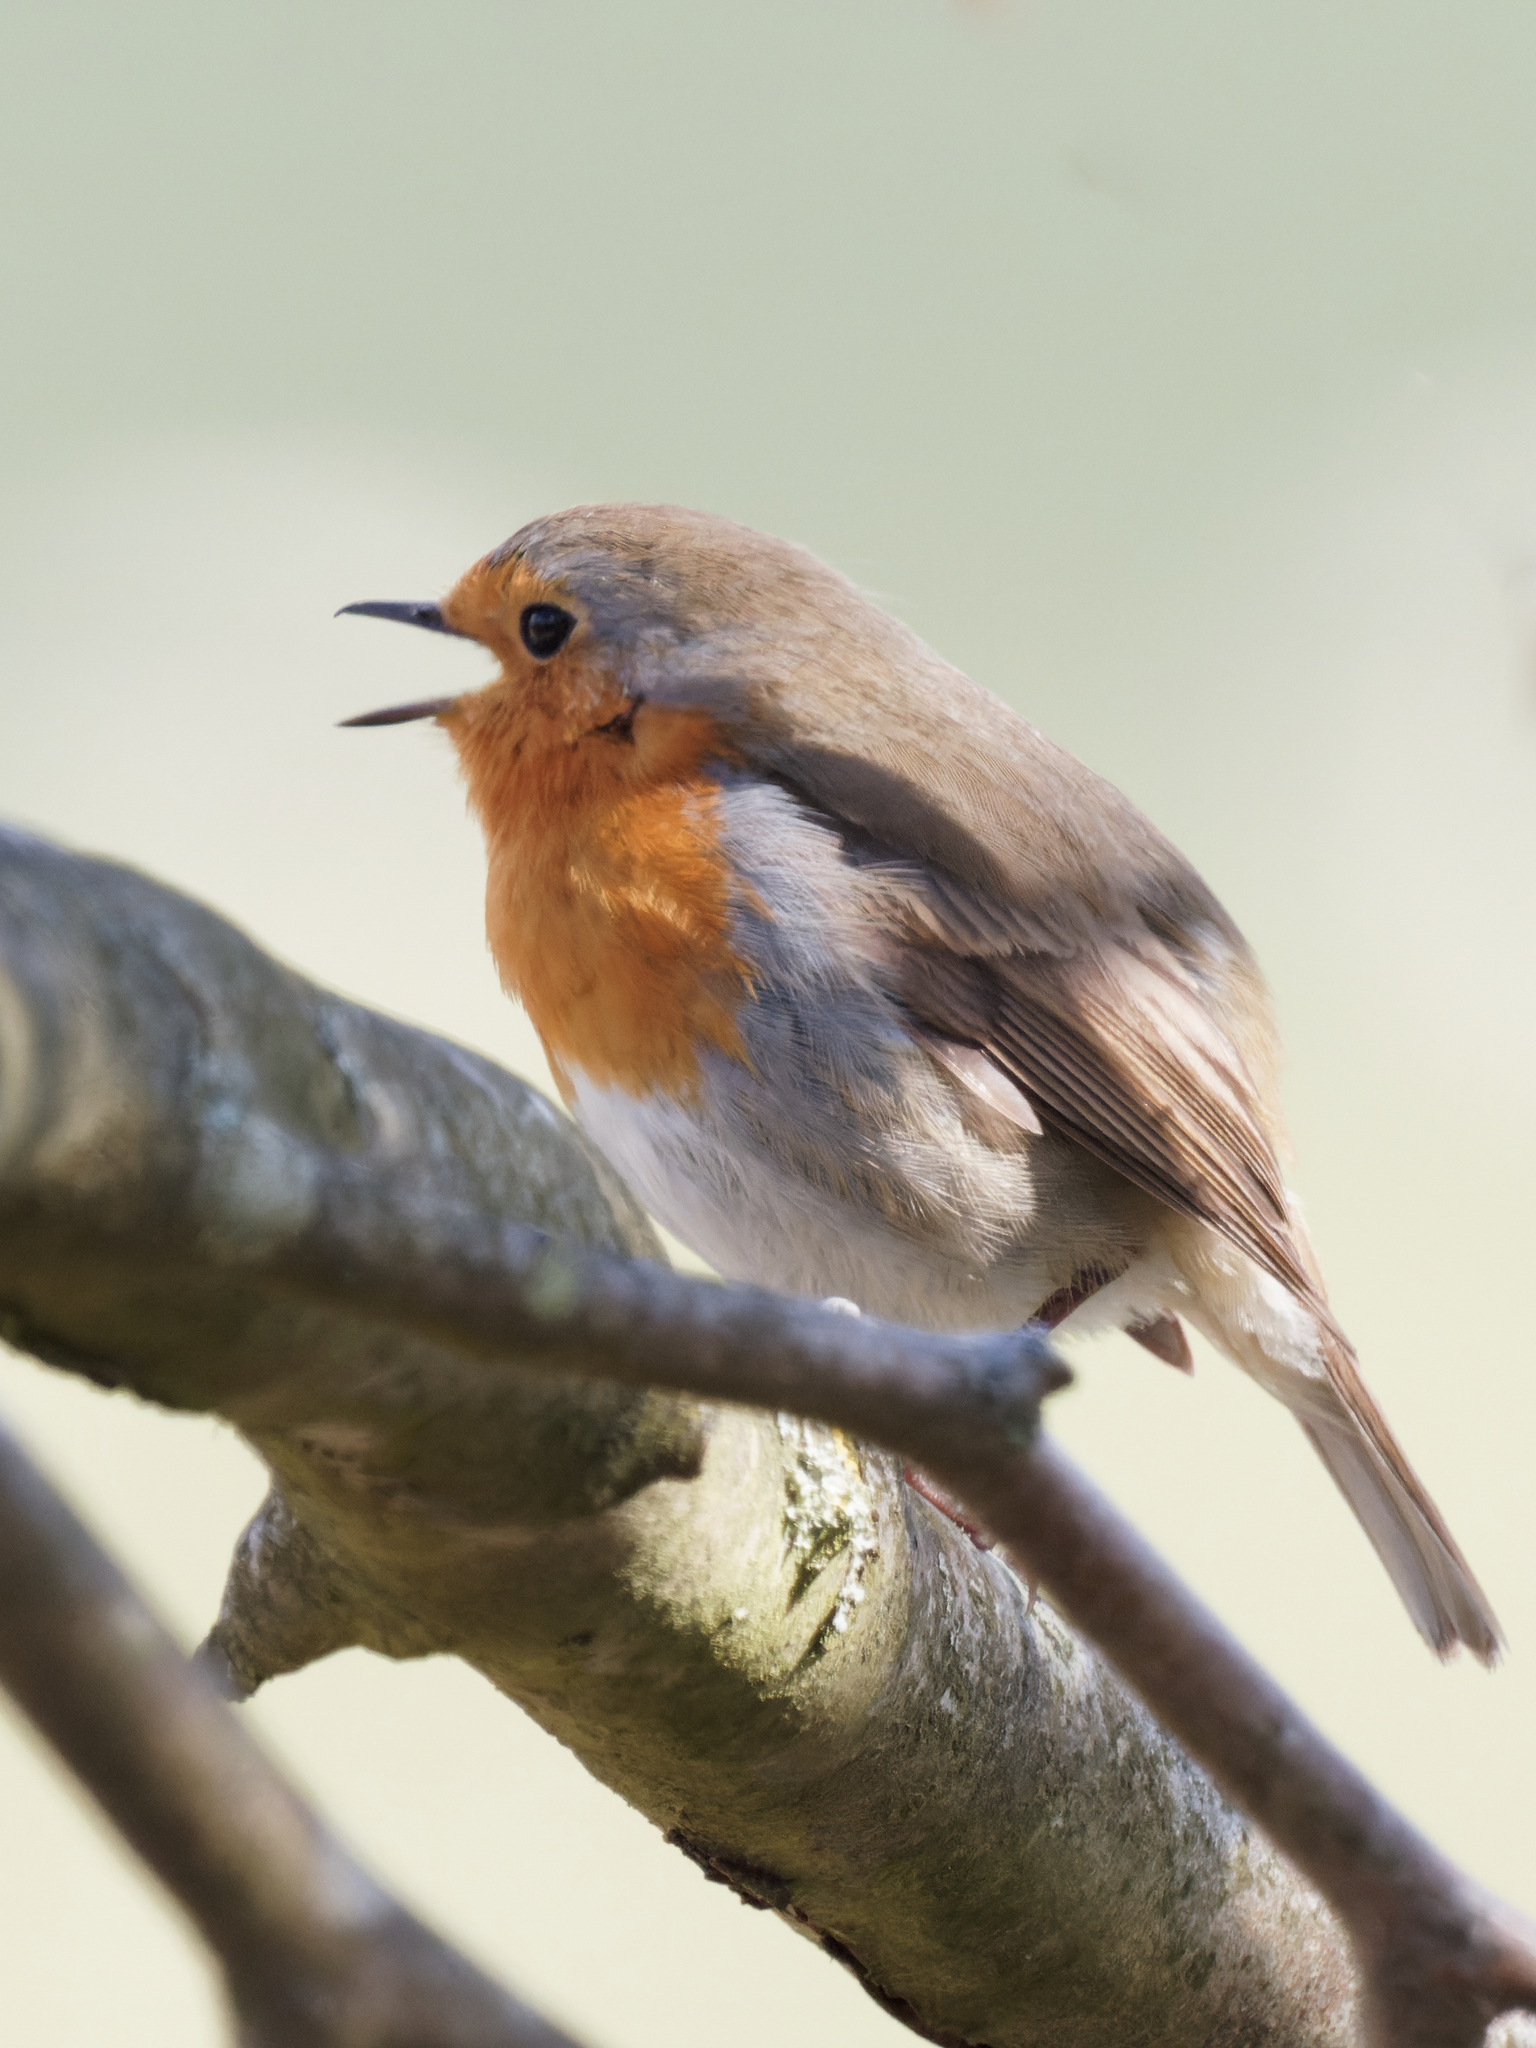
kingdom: Animalia
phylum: Chordata
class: Aves
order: Passeriformes
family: Muscicapidae
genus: Erithacus
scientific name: Erithacus rubecula
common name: European robin
